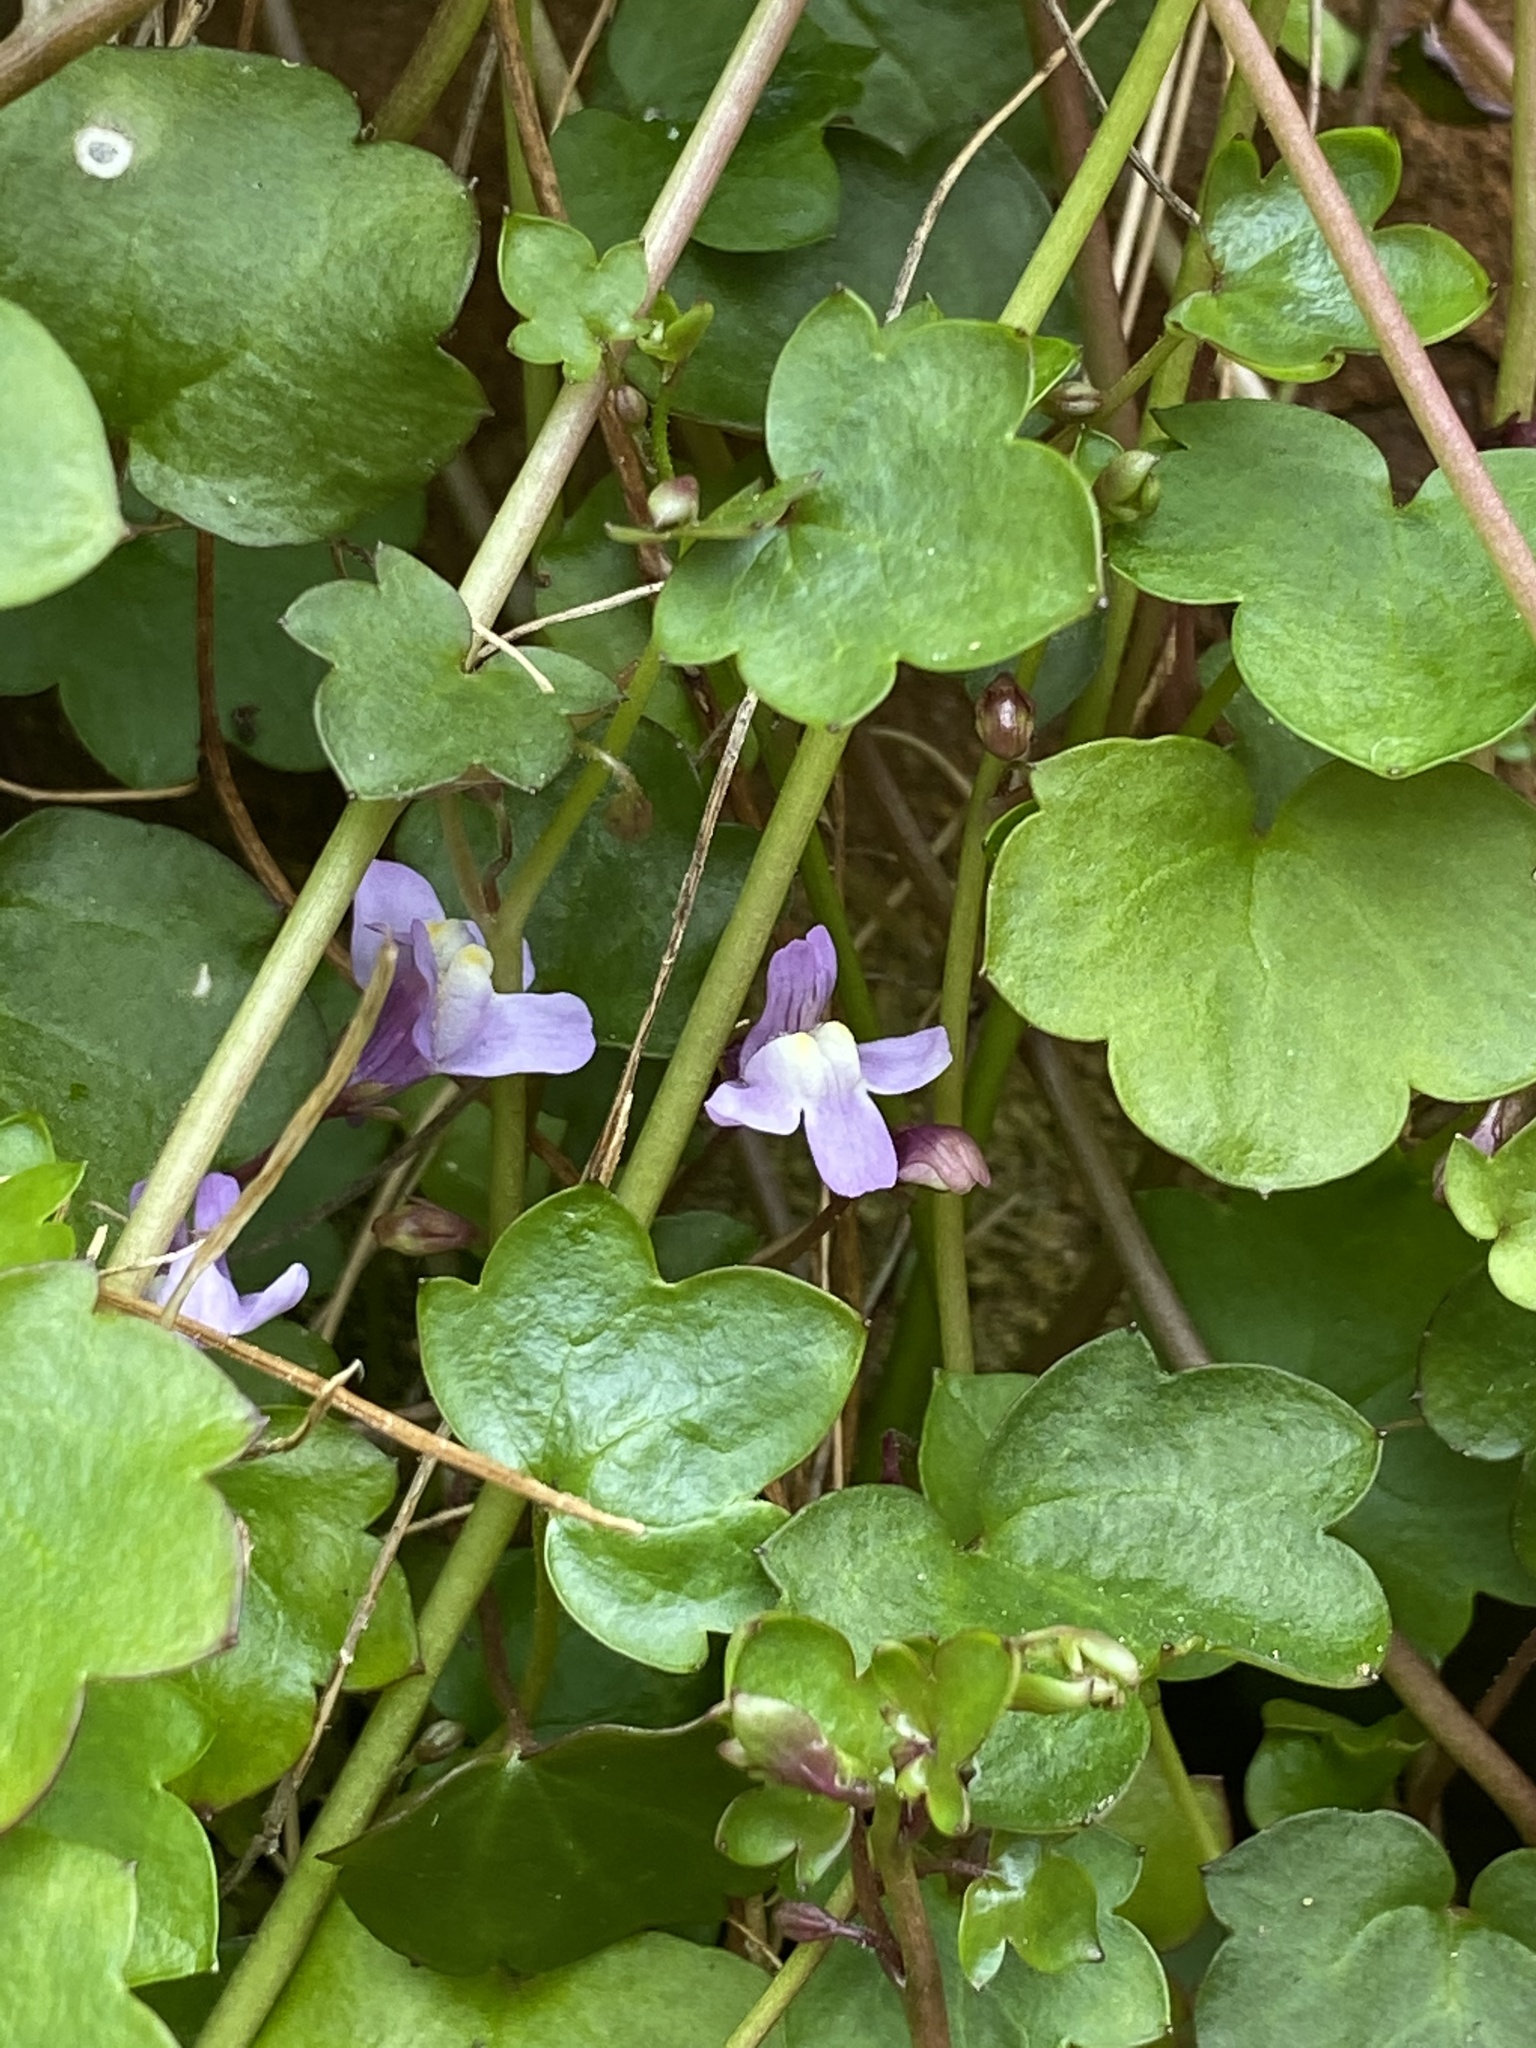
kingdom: Plantae
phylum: Tracheophyta
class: Magnoliopsida
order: Lamiales
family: Plantaginaceae
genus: Cymbalaria
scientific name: Cymbalaria muralis
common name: Ivy-leaved toadflax
